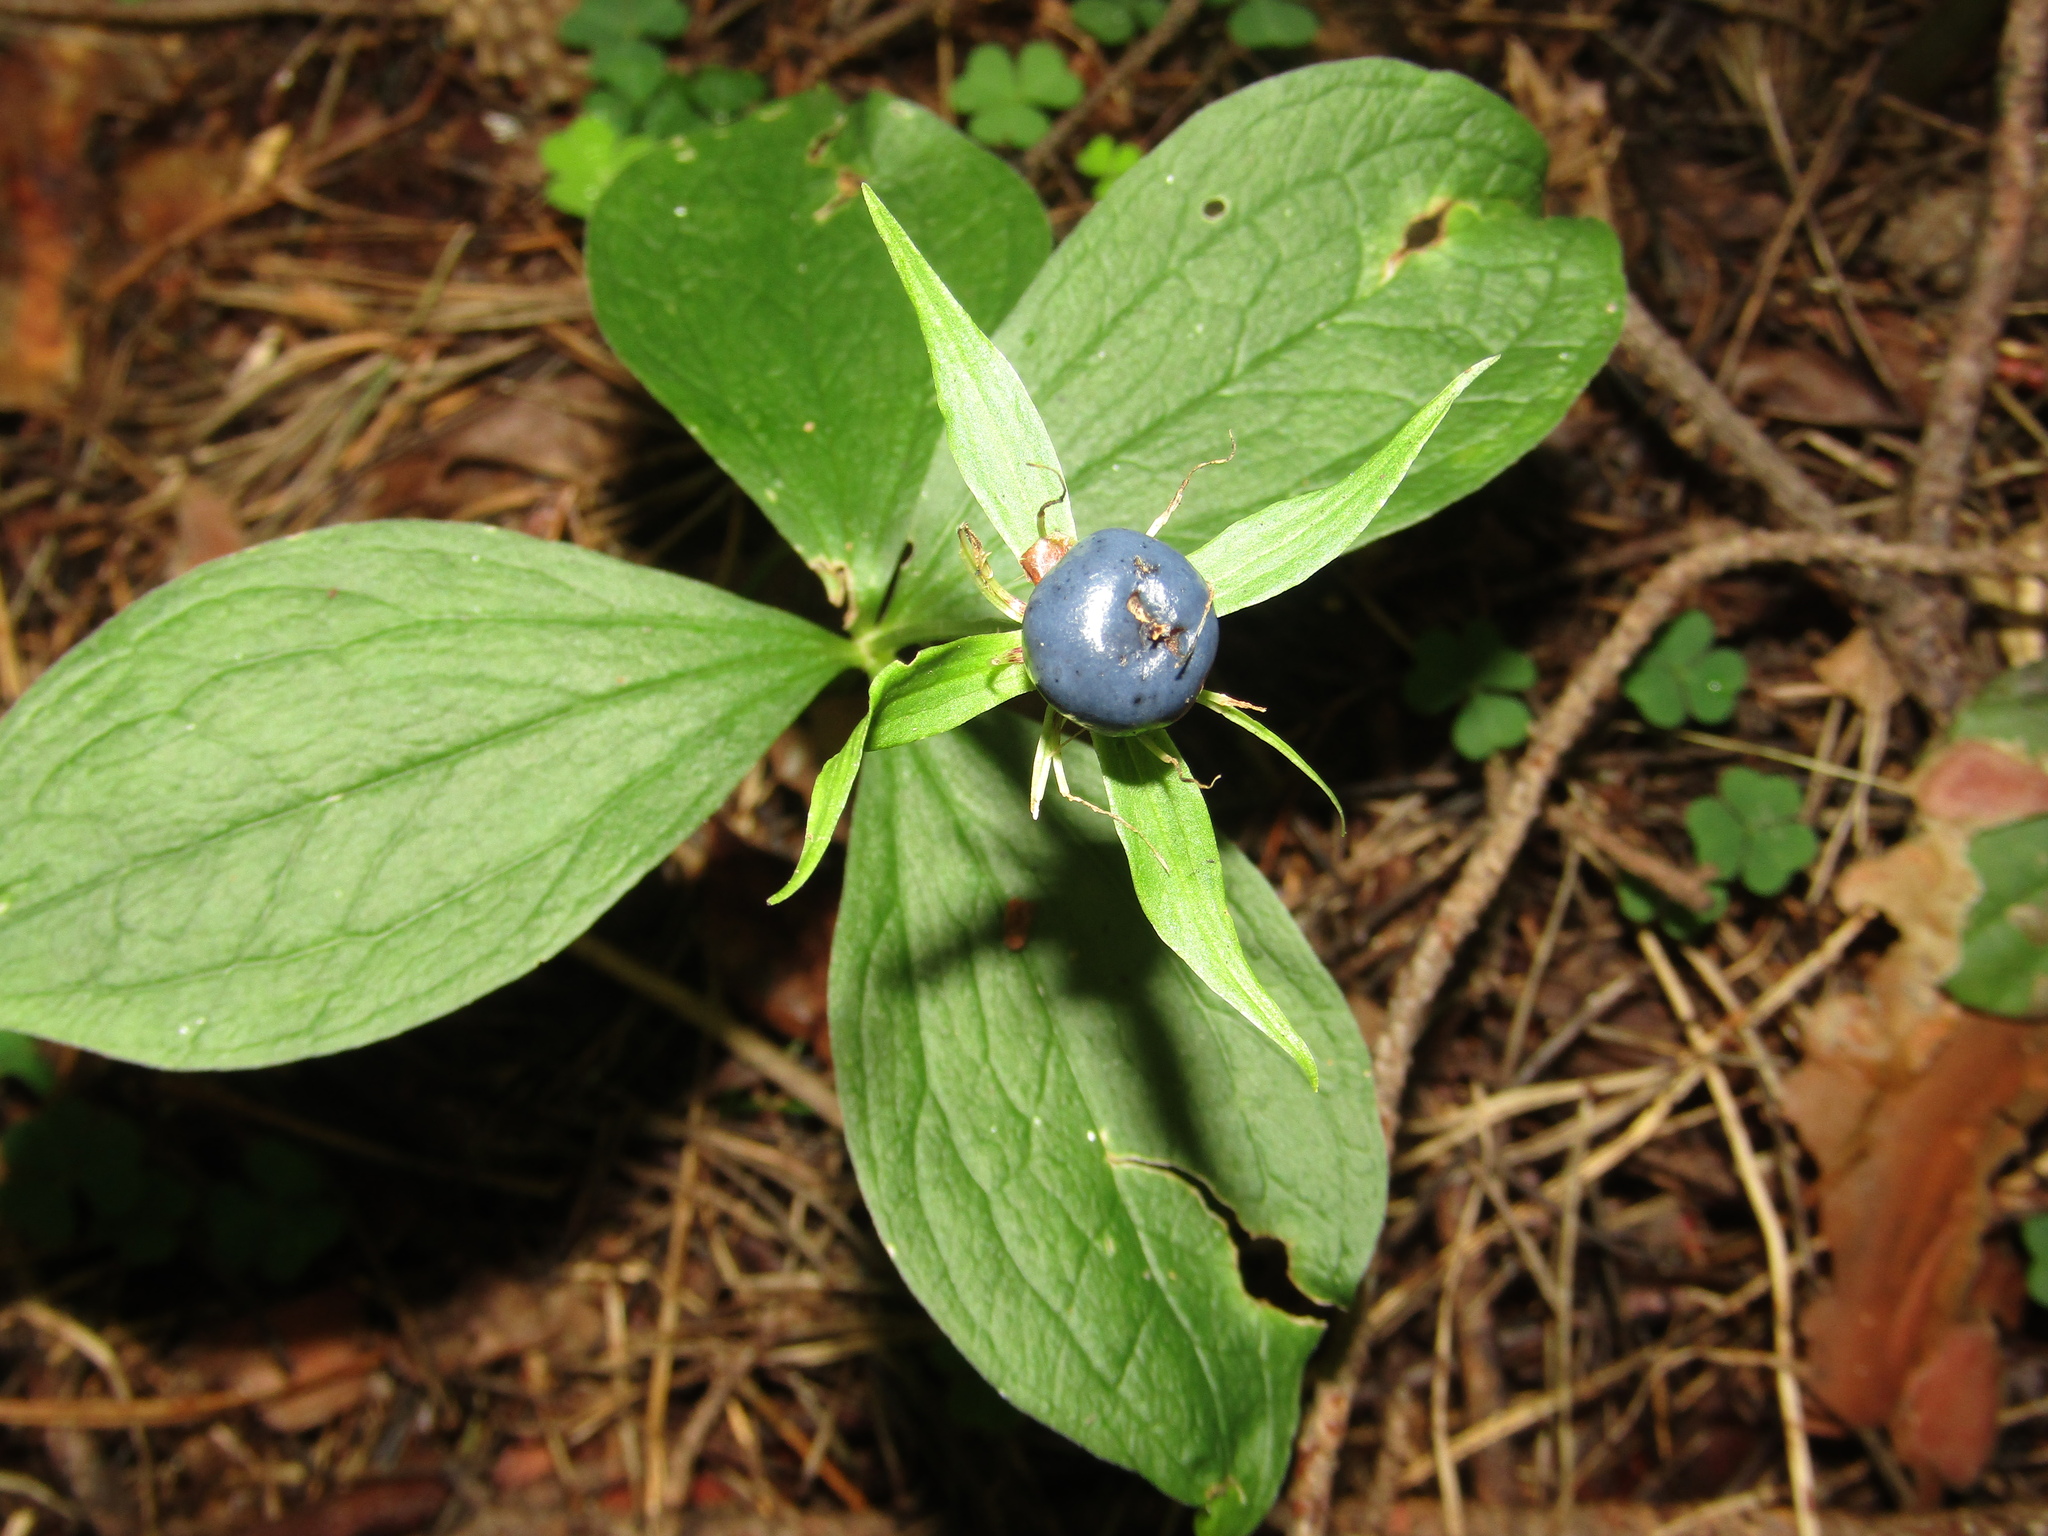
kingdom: Plantae
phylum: Tracheophyta
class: Liliopsida
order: Liliales
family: Melanthiaceae
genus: Paris
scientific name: Paris quadrifolia
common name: Herb-paris
